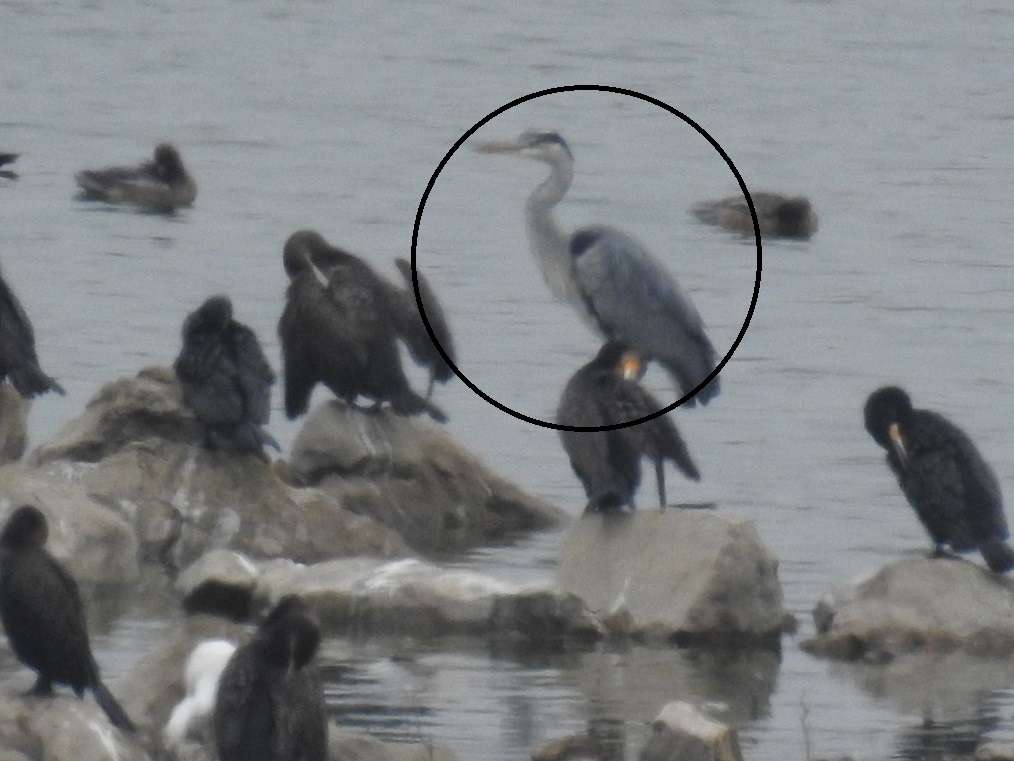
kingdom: Animalia
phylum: Chordata
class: Aves
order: Pelecaniformes
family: Ardeidae
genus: Ardea
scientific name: Ardea cinerea
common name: Grey heron
